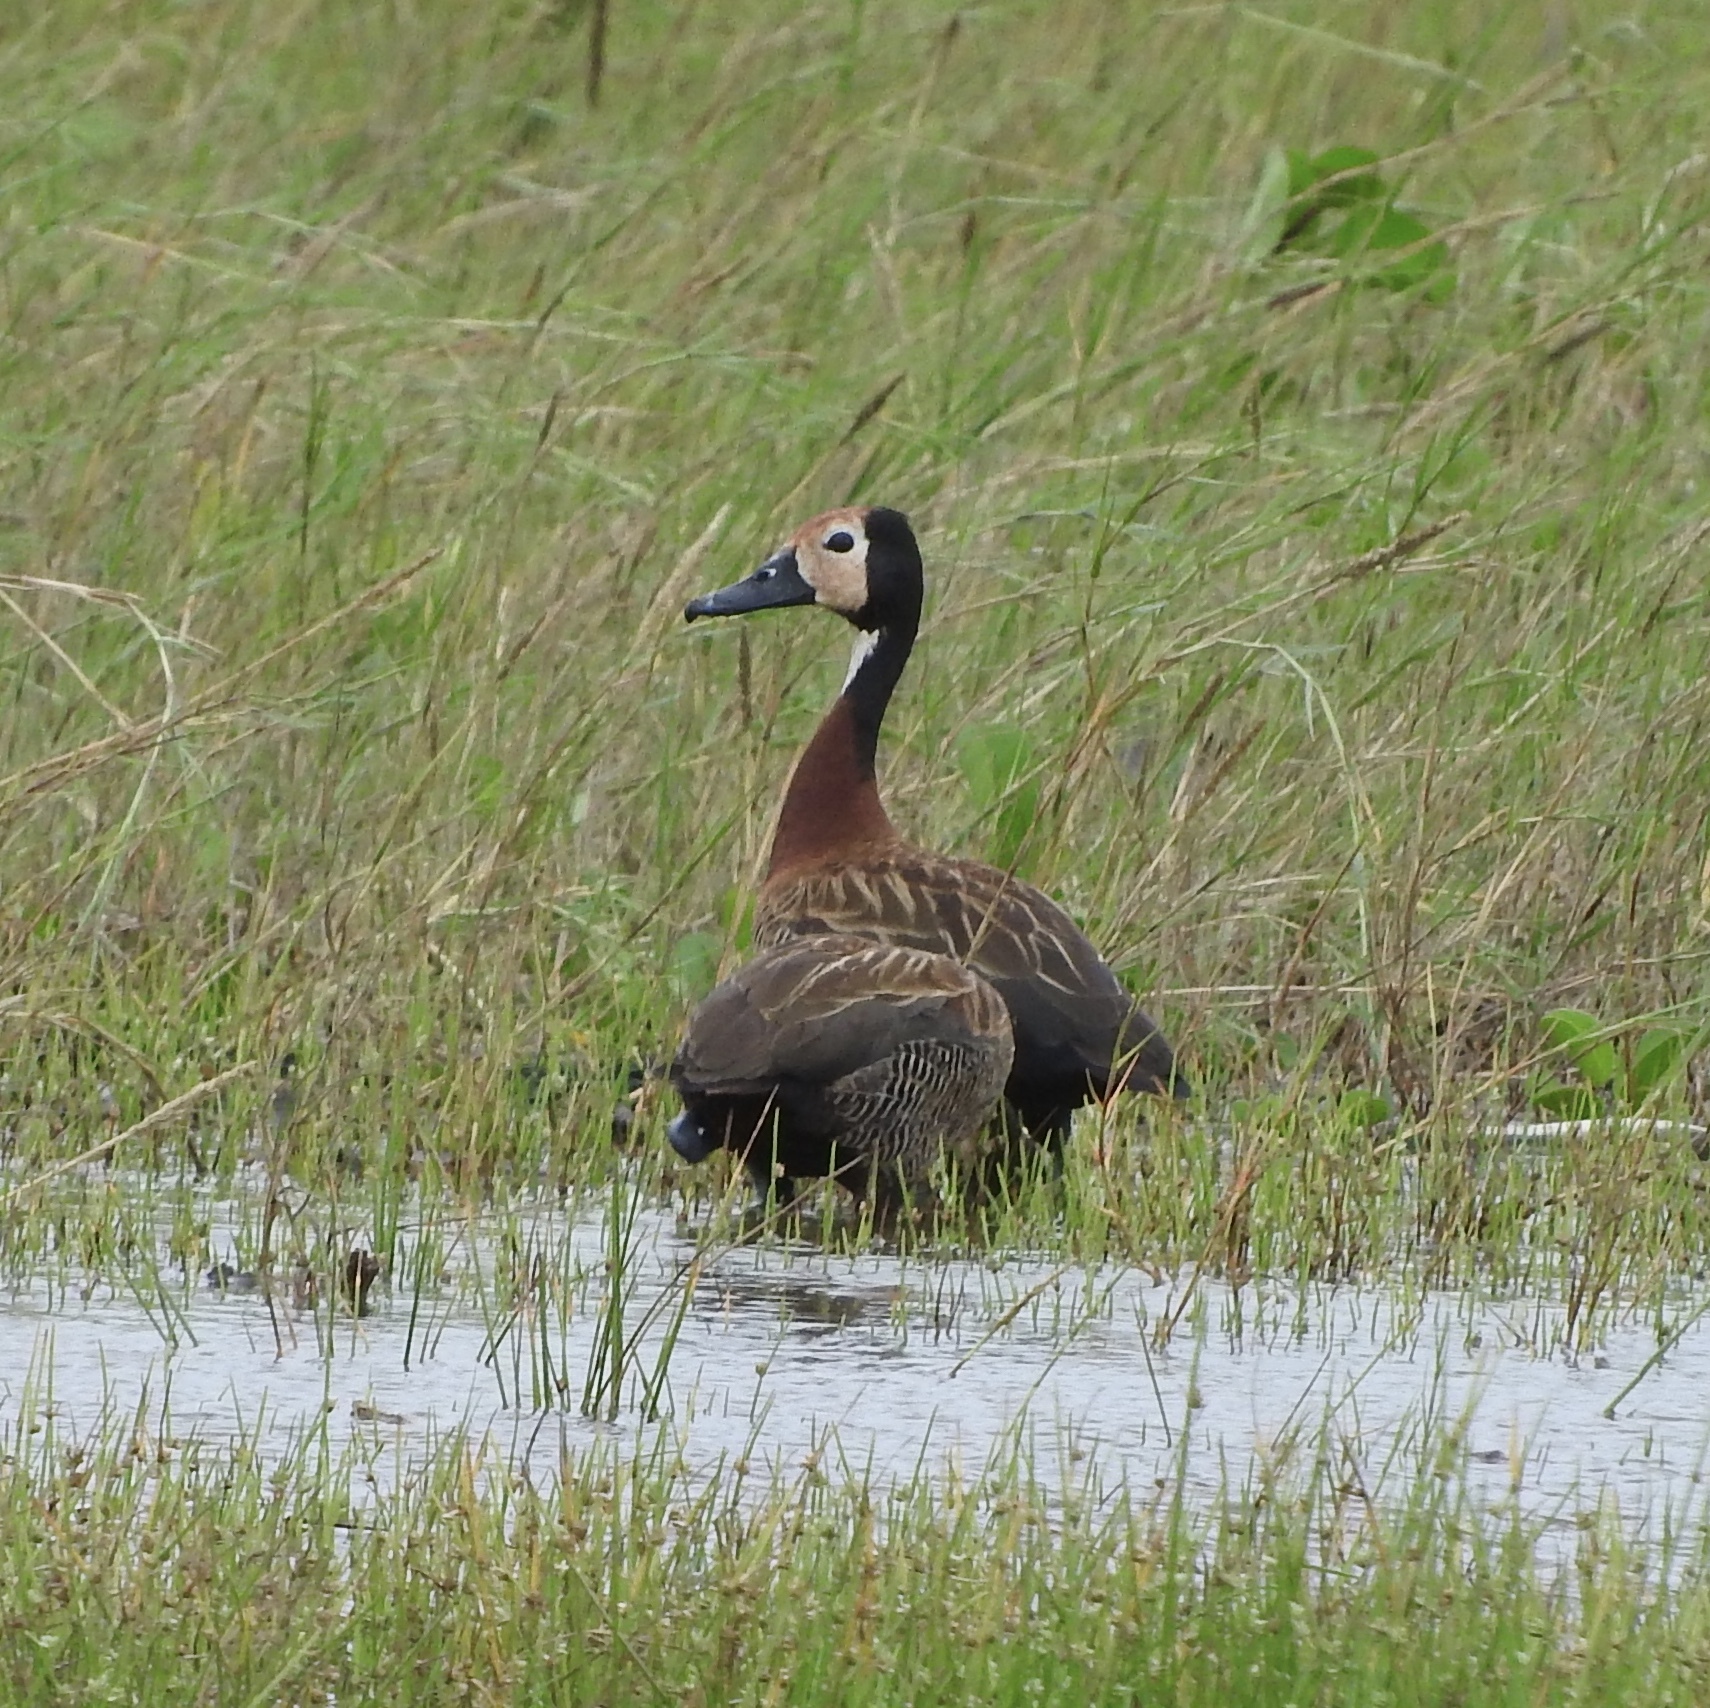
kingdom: Animalia
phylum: Chordata
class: Aves
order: Anseriformes
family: Anatidae
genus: Dendrocygna
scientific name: Dendrocygna viduata
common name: White-faced whistling duck
